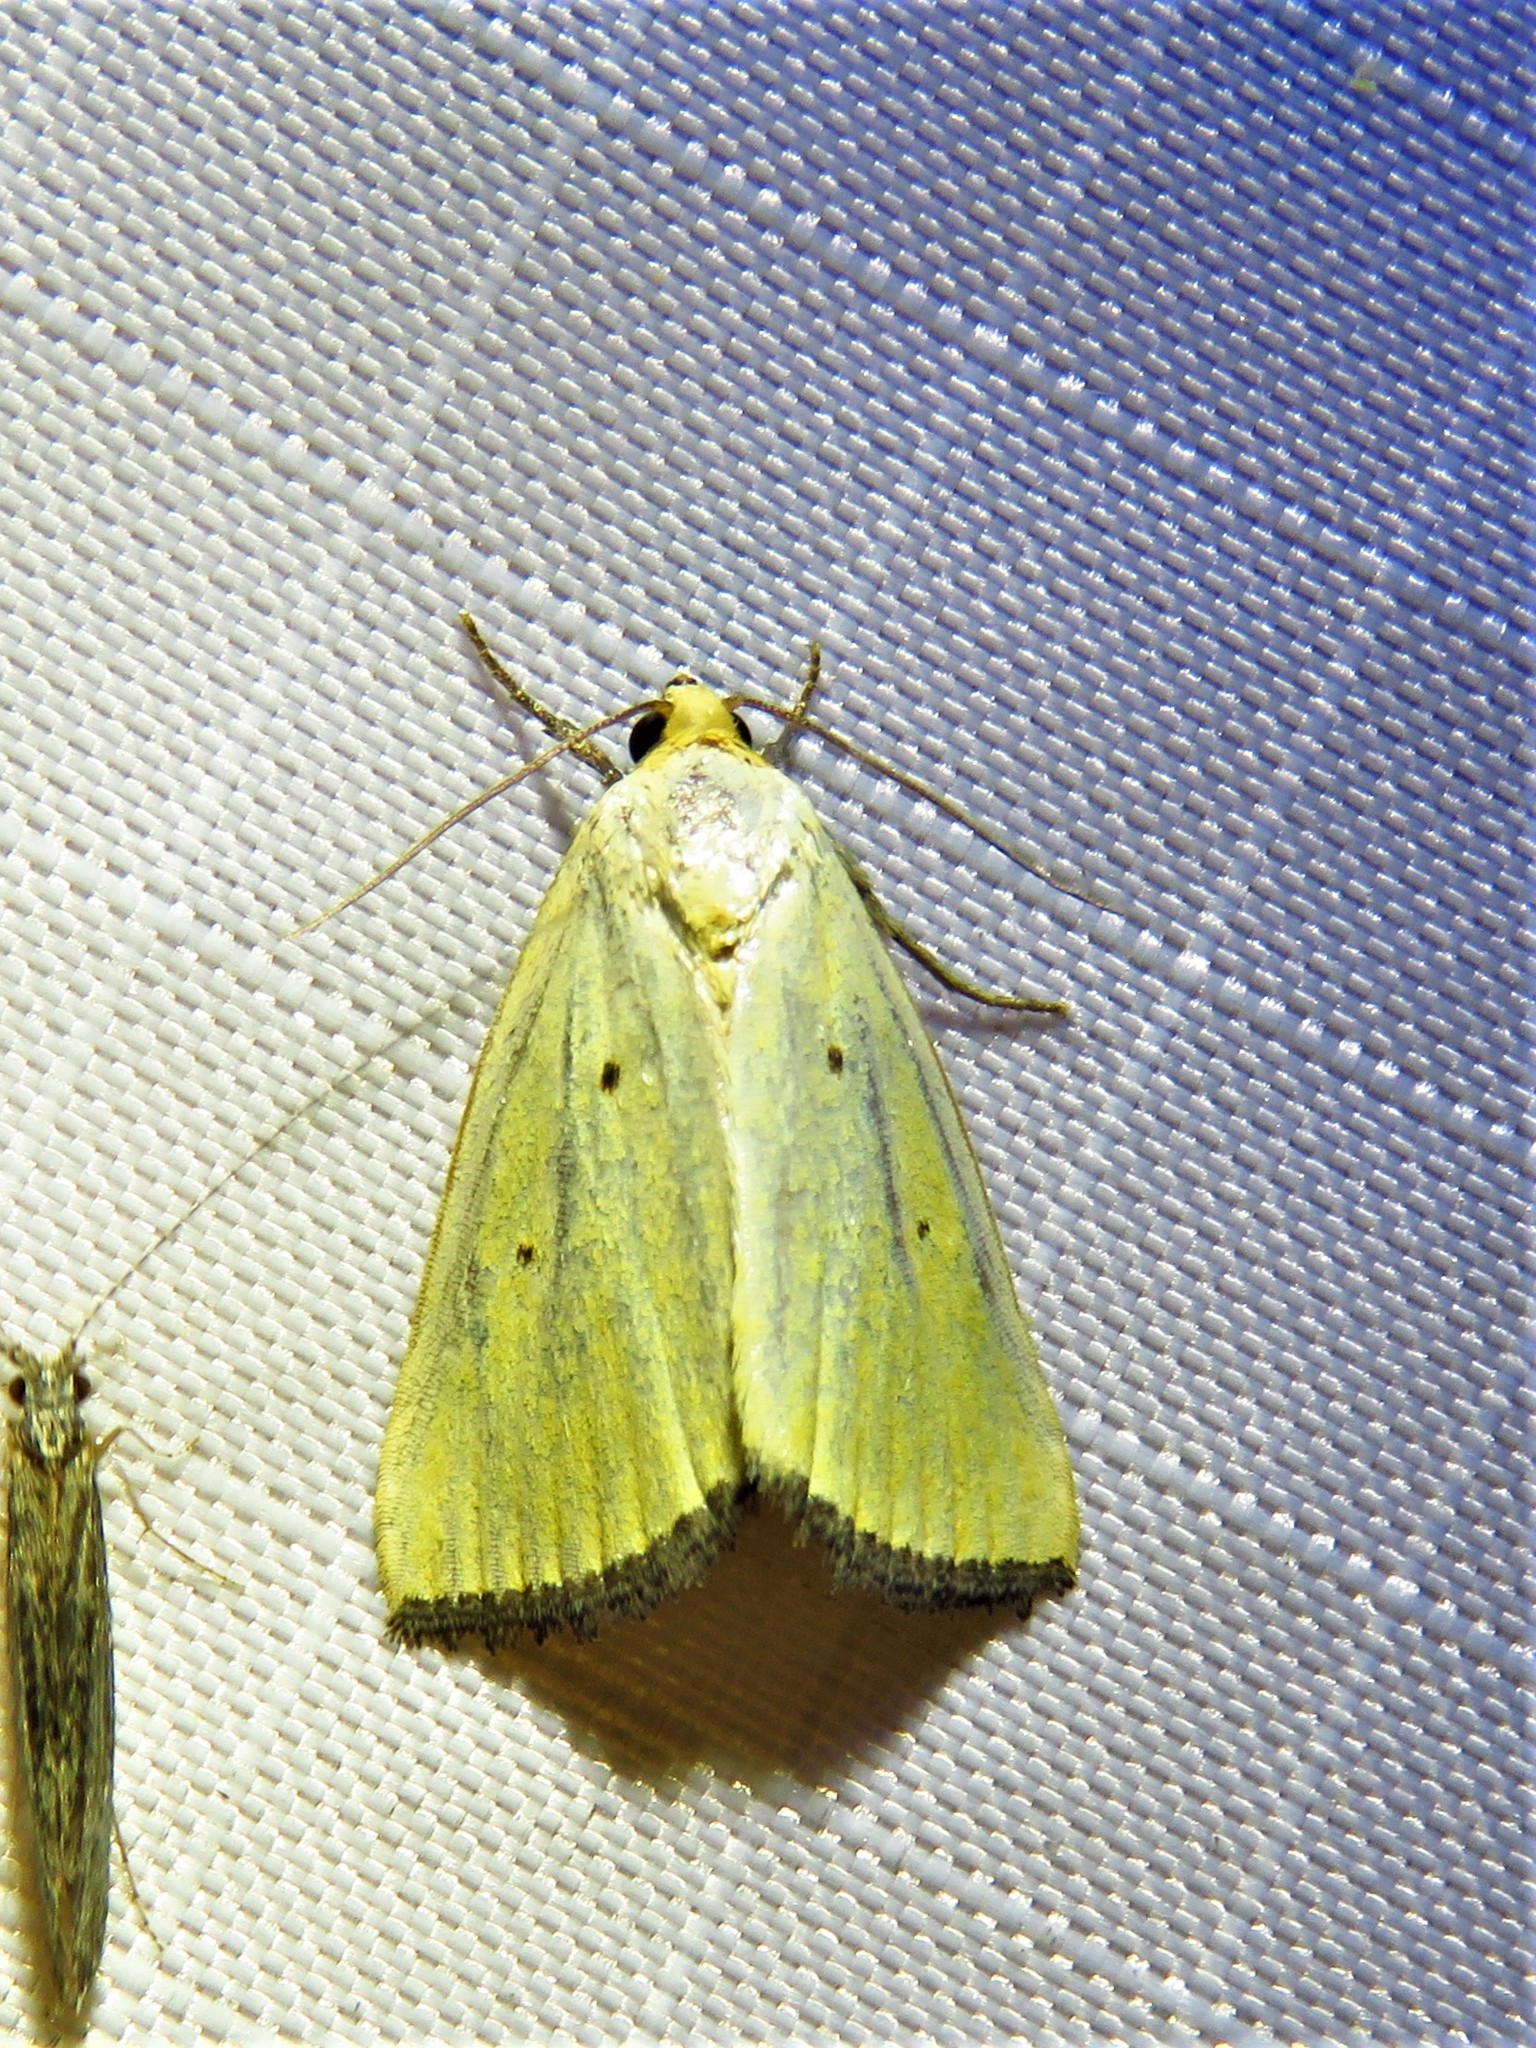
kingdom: Animalia
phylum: Arthropoda
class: Insecta
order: Lepidoptera
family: Noctuidae
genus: Marimatha
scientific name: Marimatha nigrofimbria
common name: Black-bordered lemon moth
